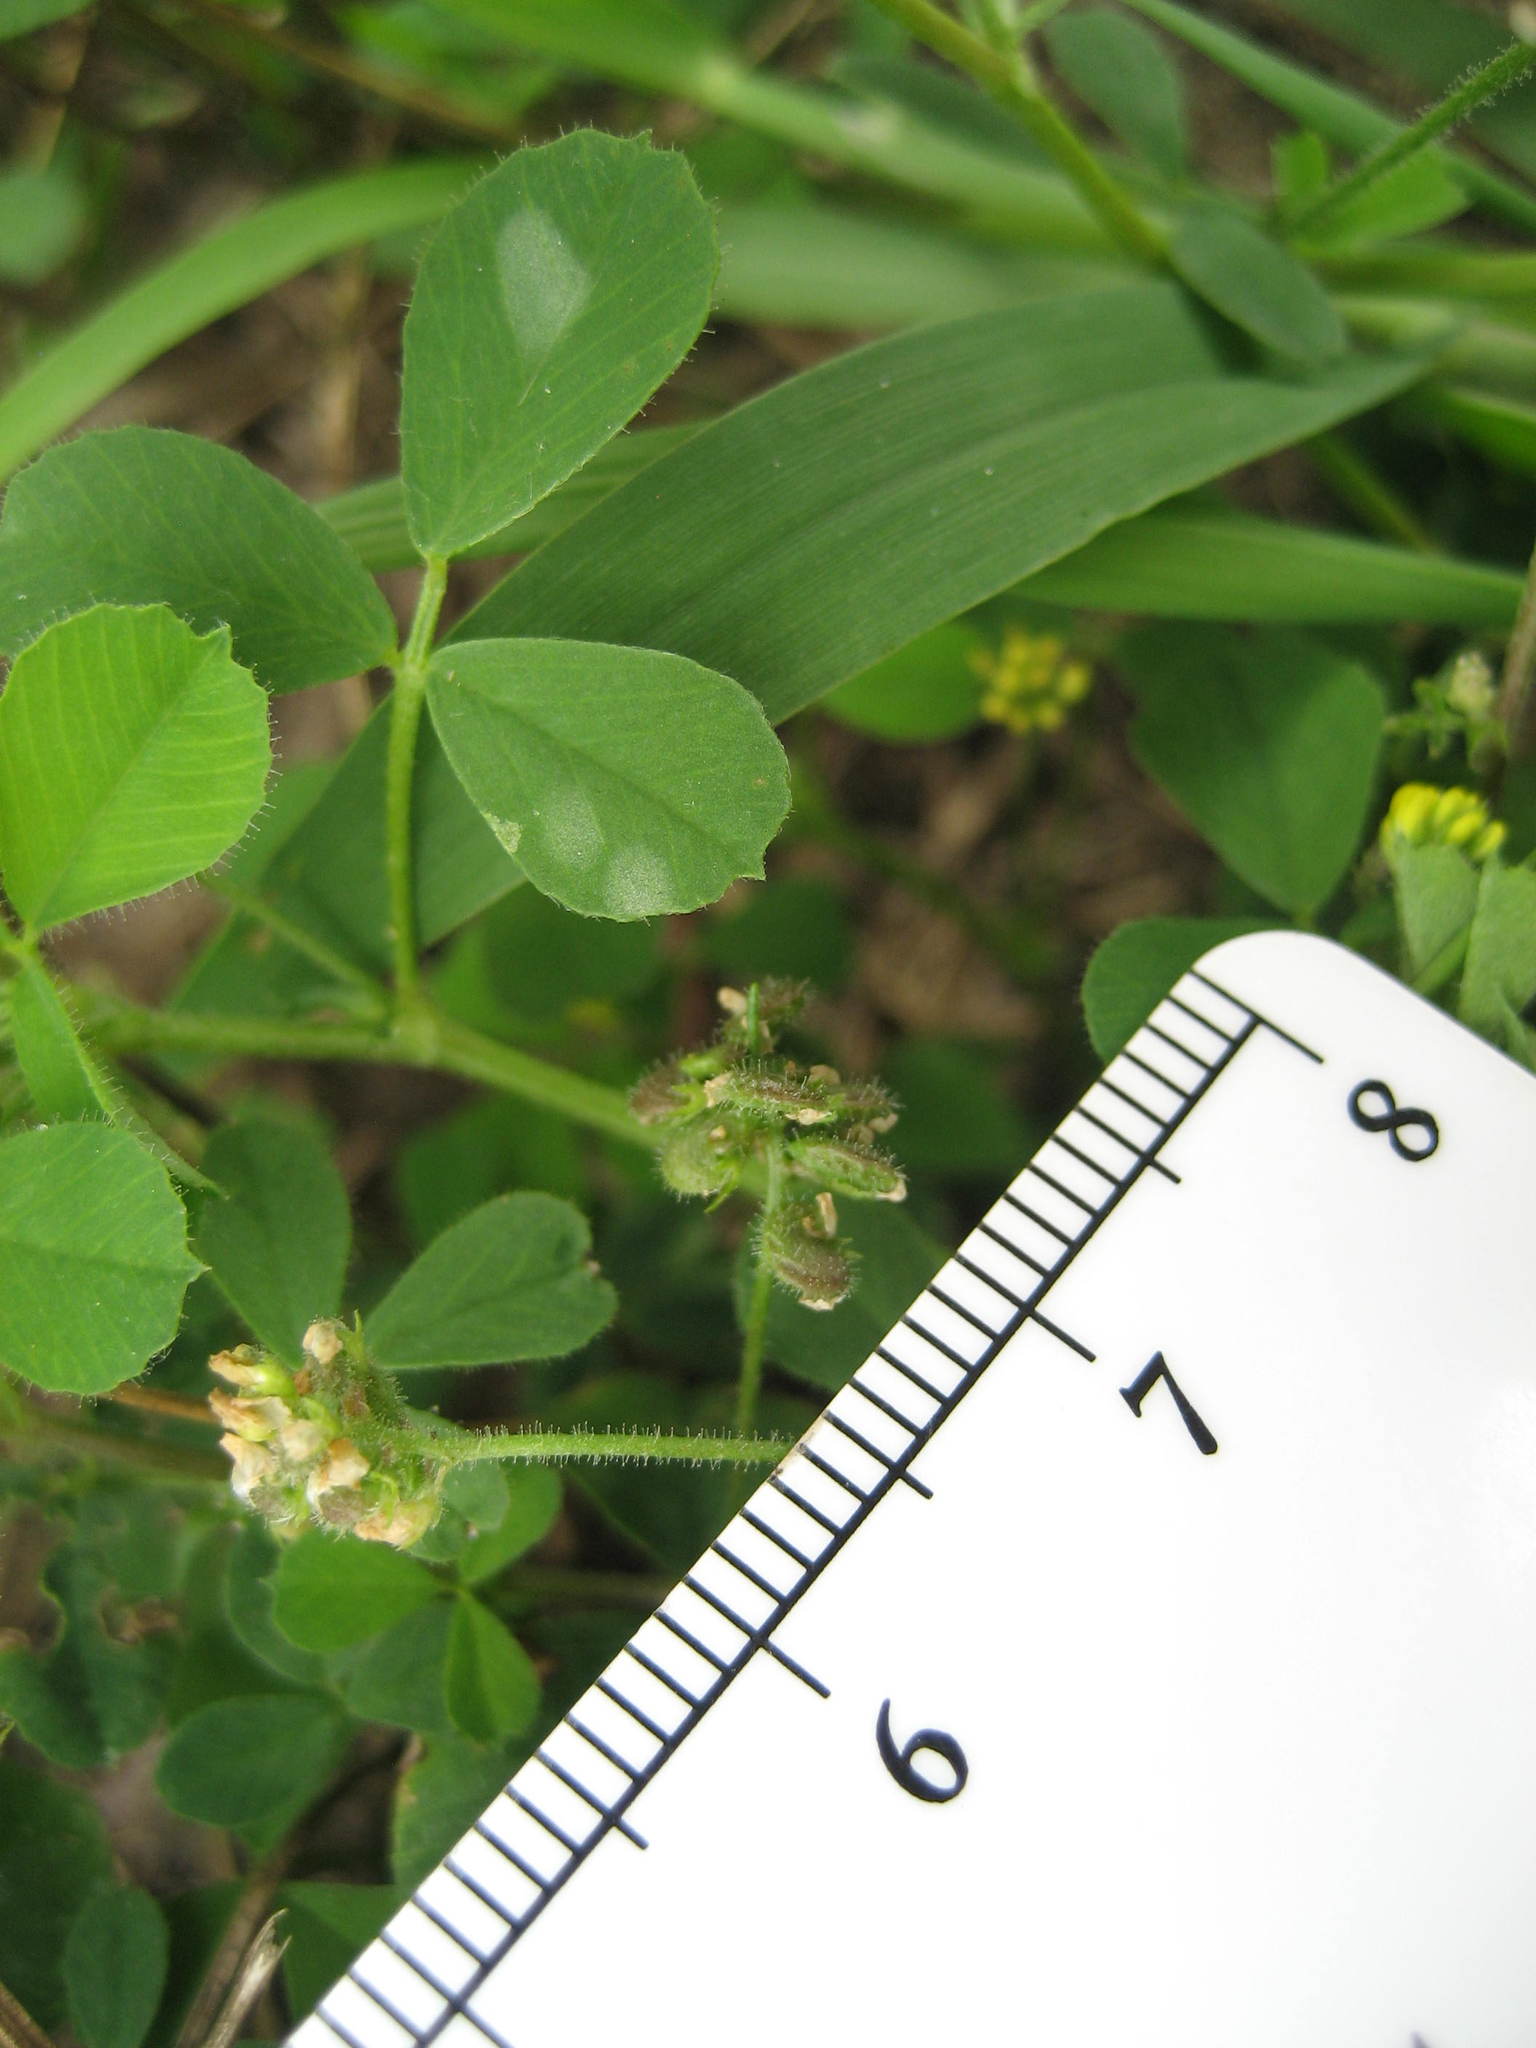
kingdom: Plantae
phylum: Tracheophyta
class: Magnoliopsida
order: Fabales
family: Fabaceae
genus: Medicago
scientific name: Medicago lupulina
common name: Black medick
